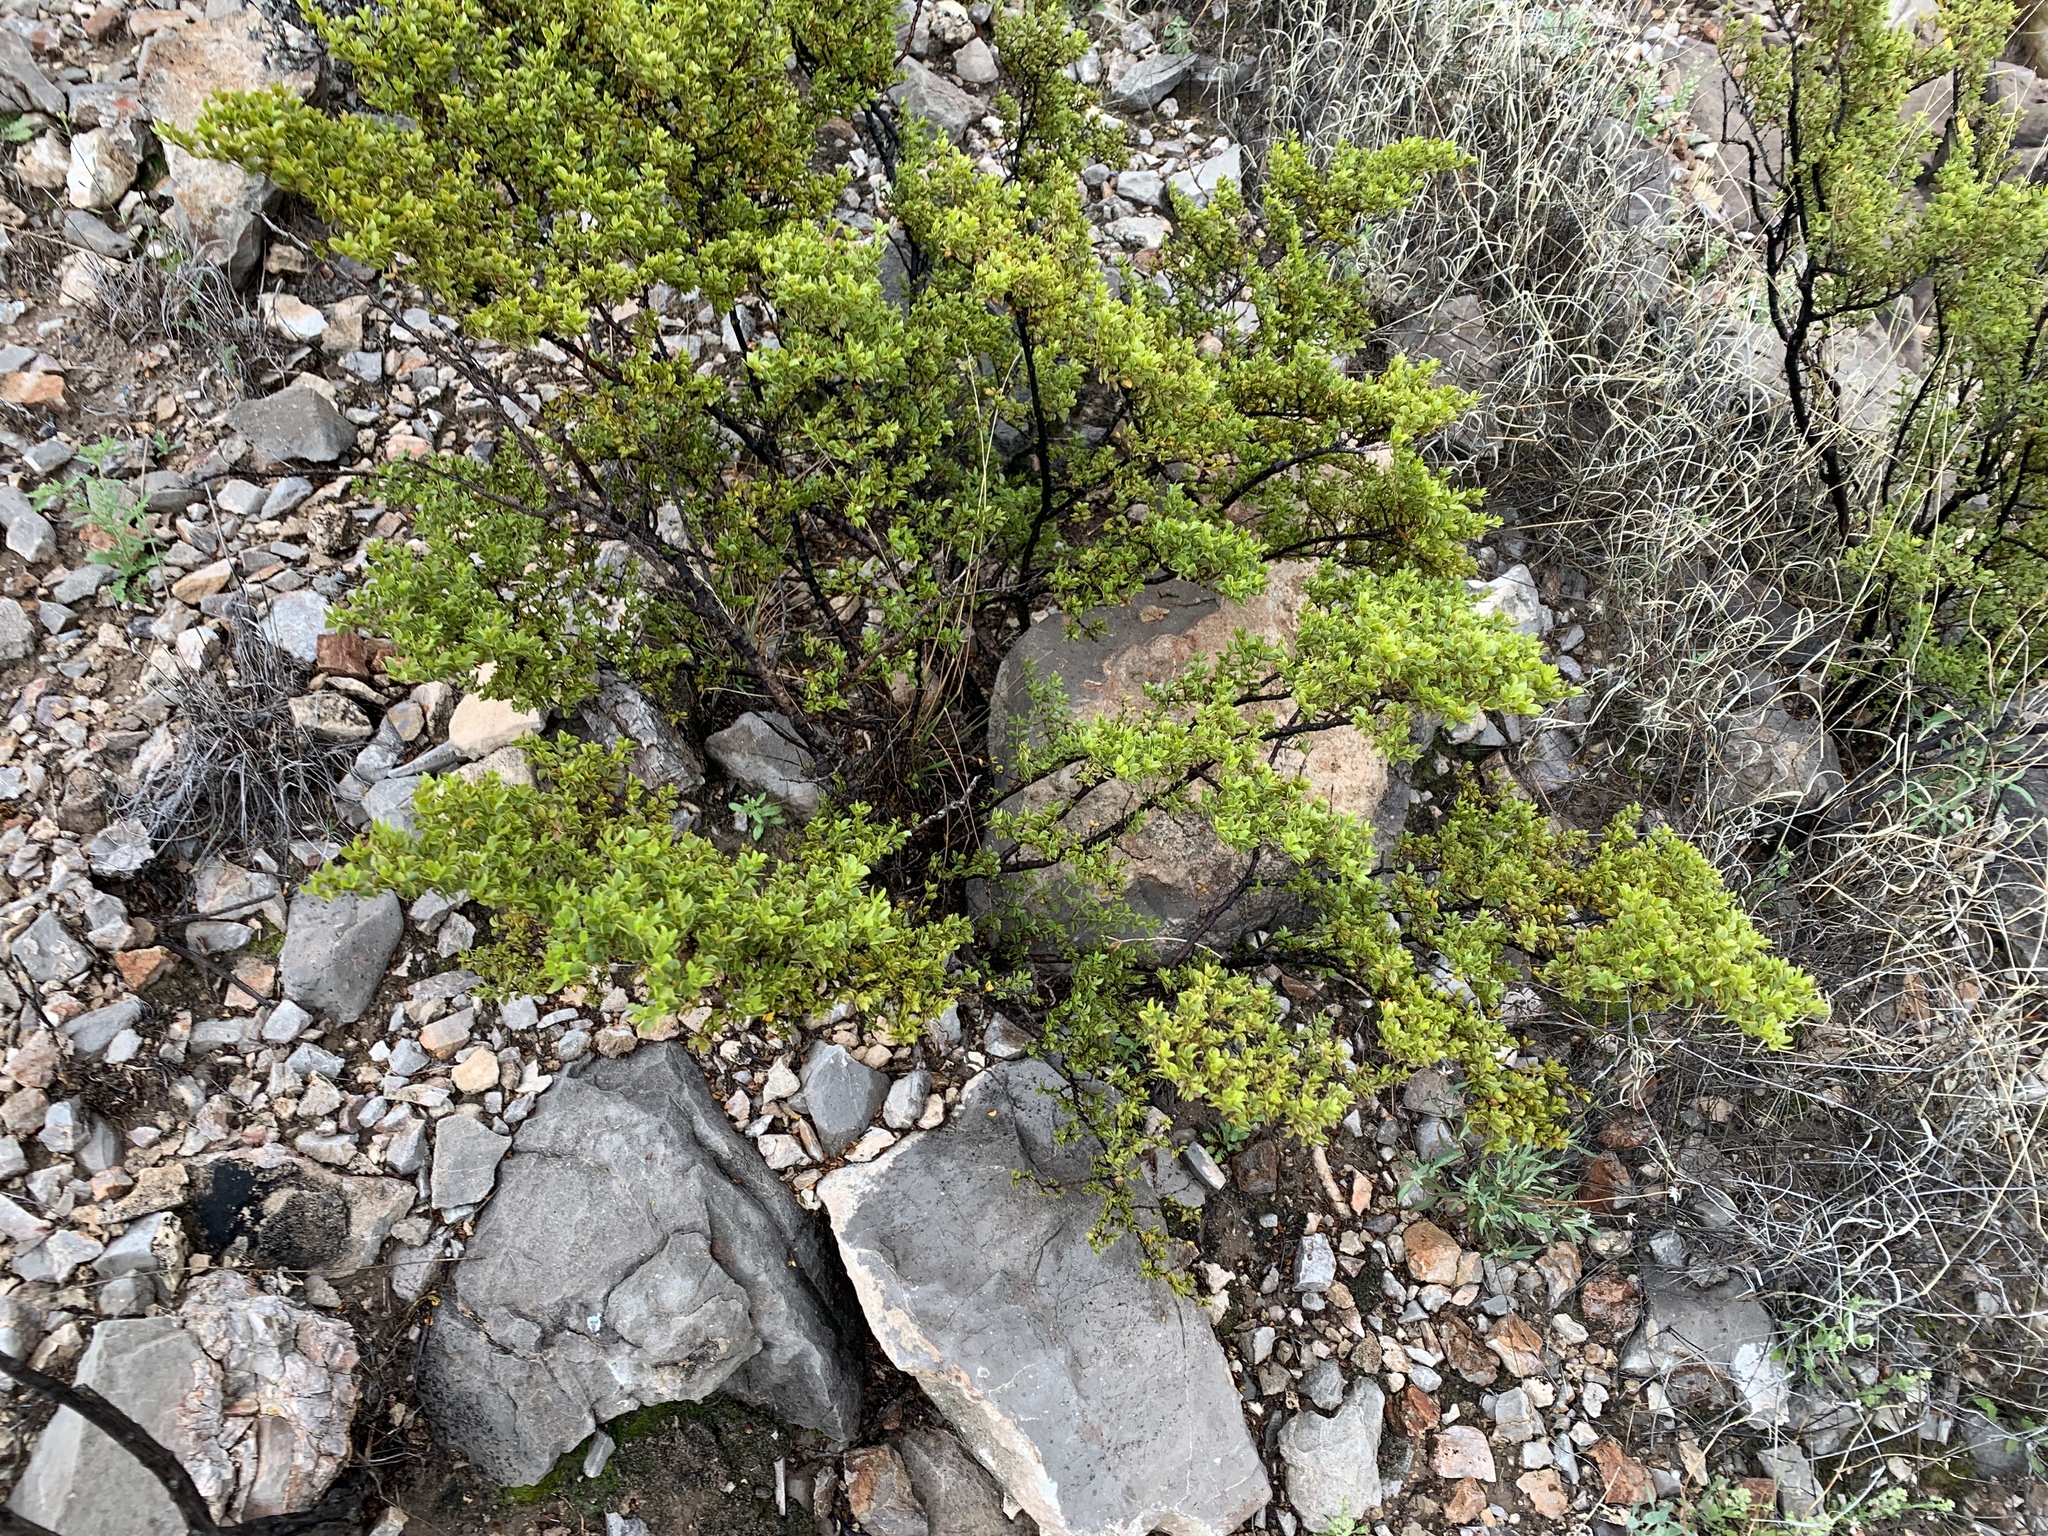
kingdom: Plantae
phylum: Tracheophyta
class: Magnoliopsida
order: Zygophyllales
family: Zygophyllaceae
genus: Larrea
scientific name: Larrea tridentata
